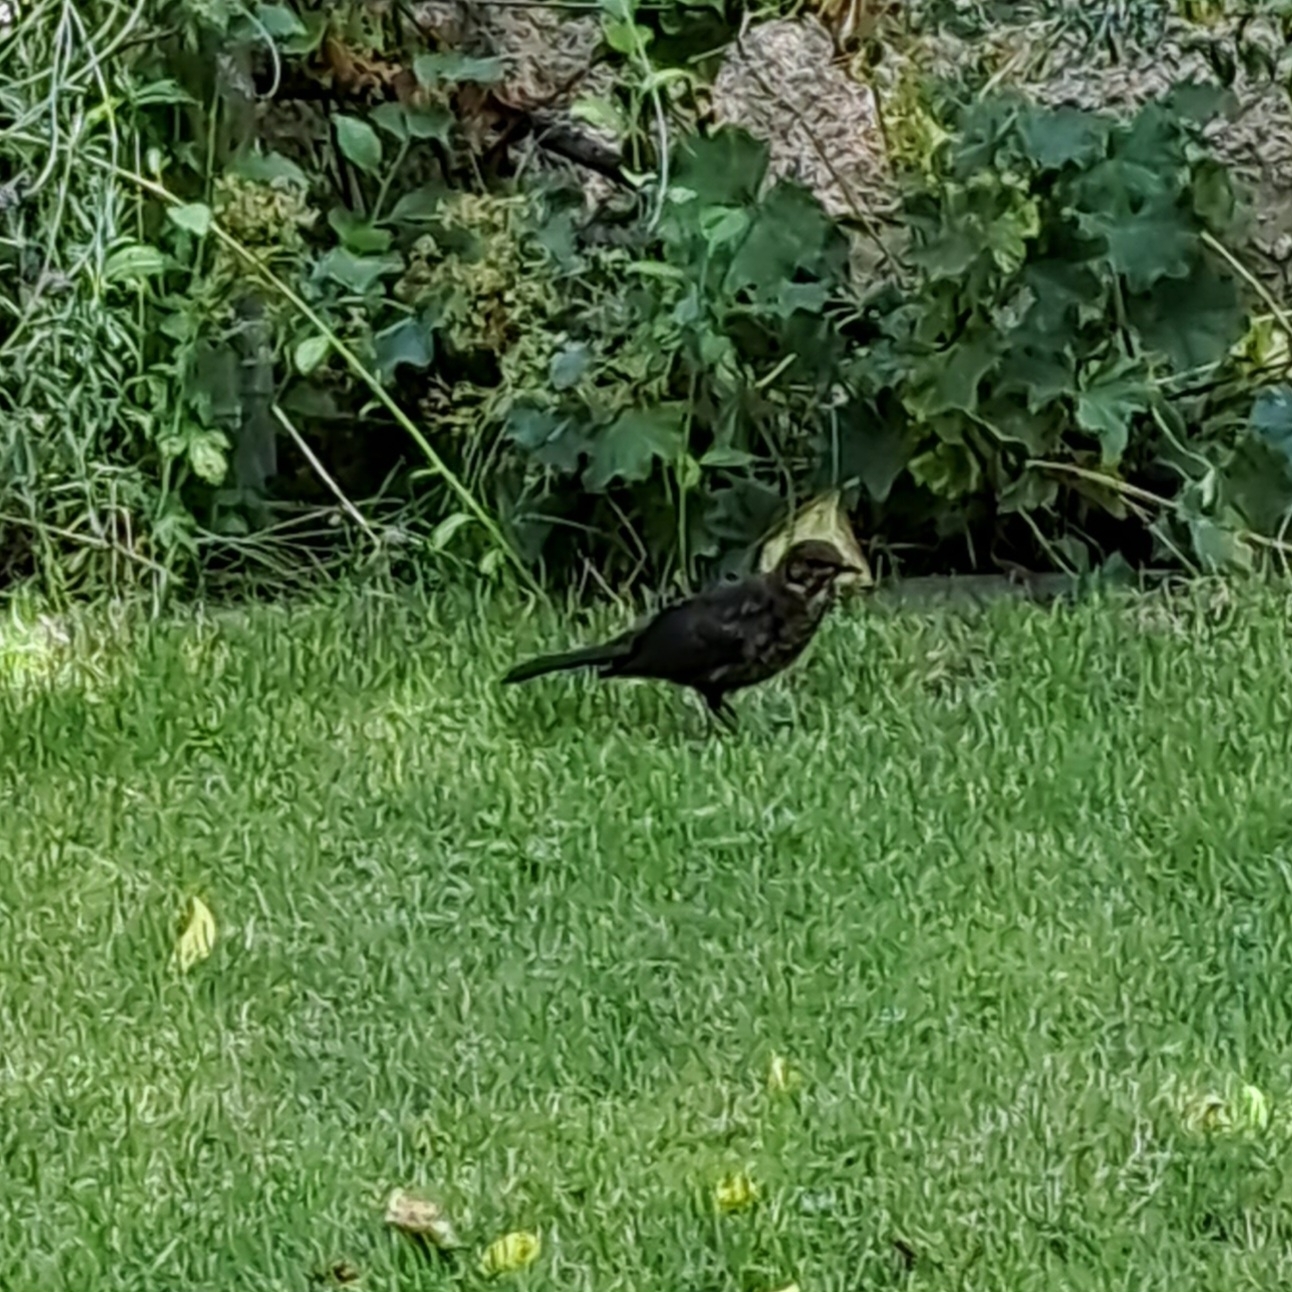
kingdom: Animalia
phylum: Chordata
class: Aves
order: Passeriformes
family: Turdidae
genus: Turdus
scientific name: Turdus merula
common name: Common blackbird
